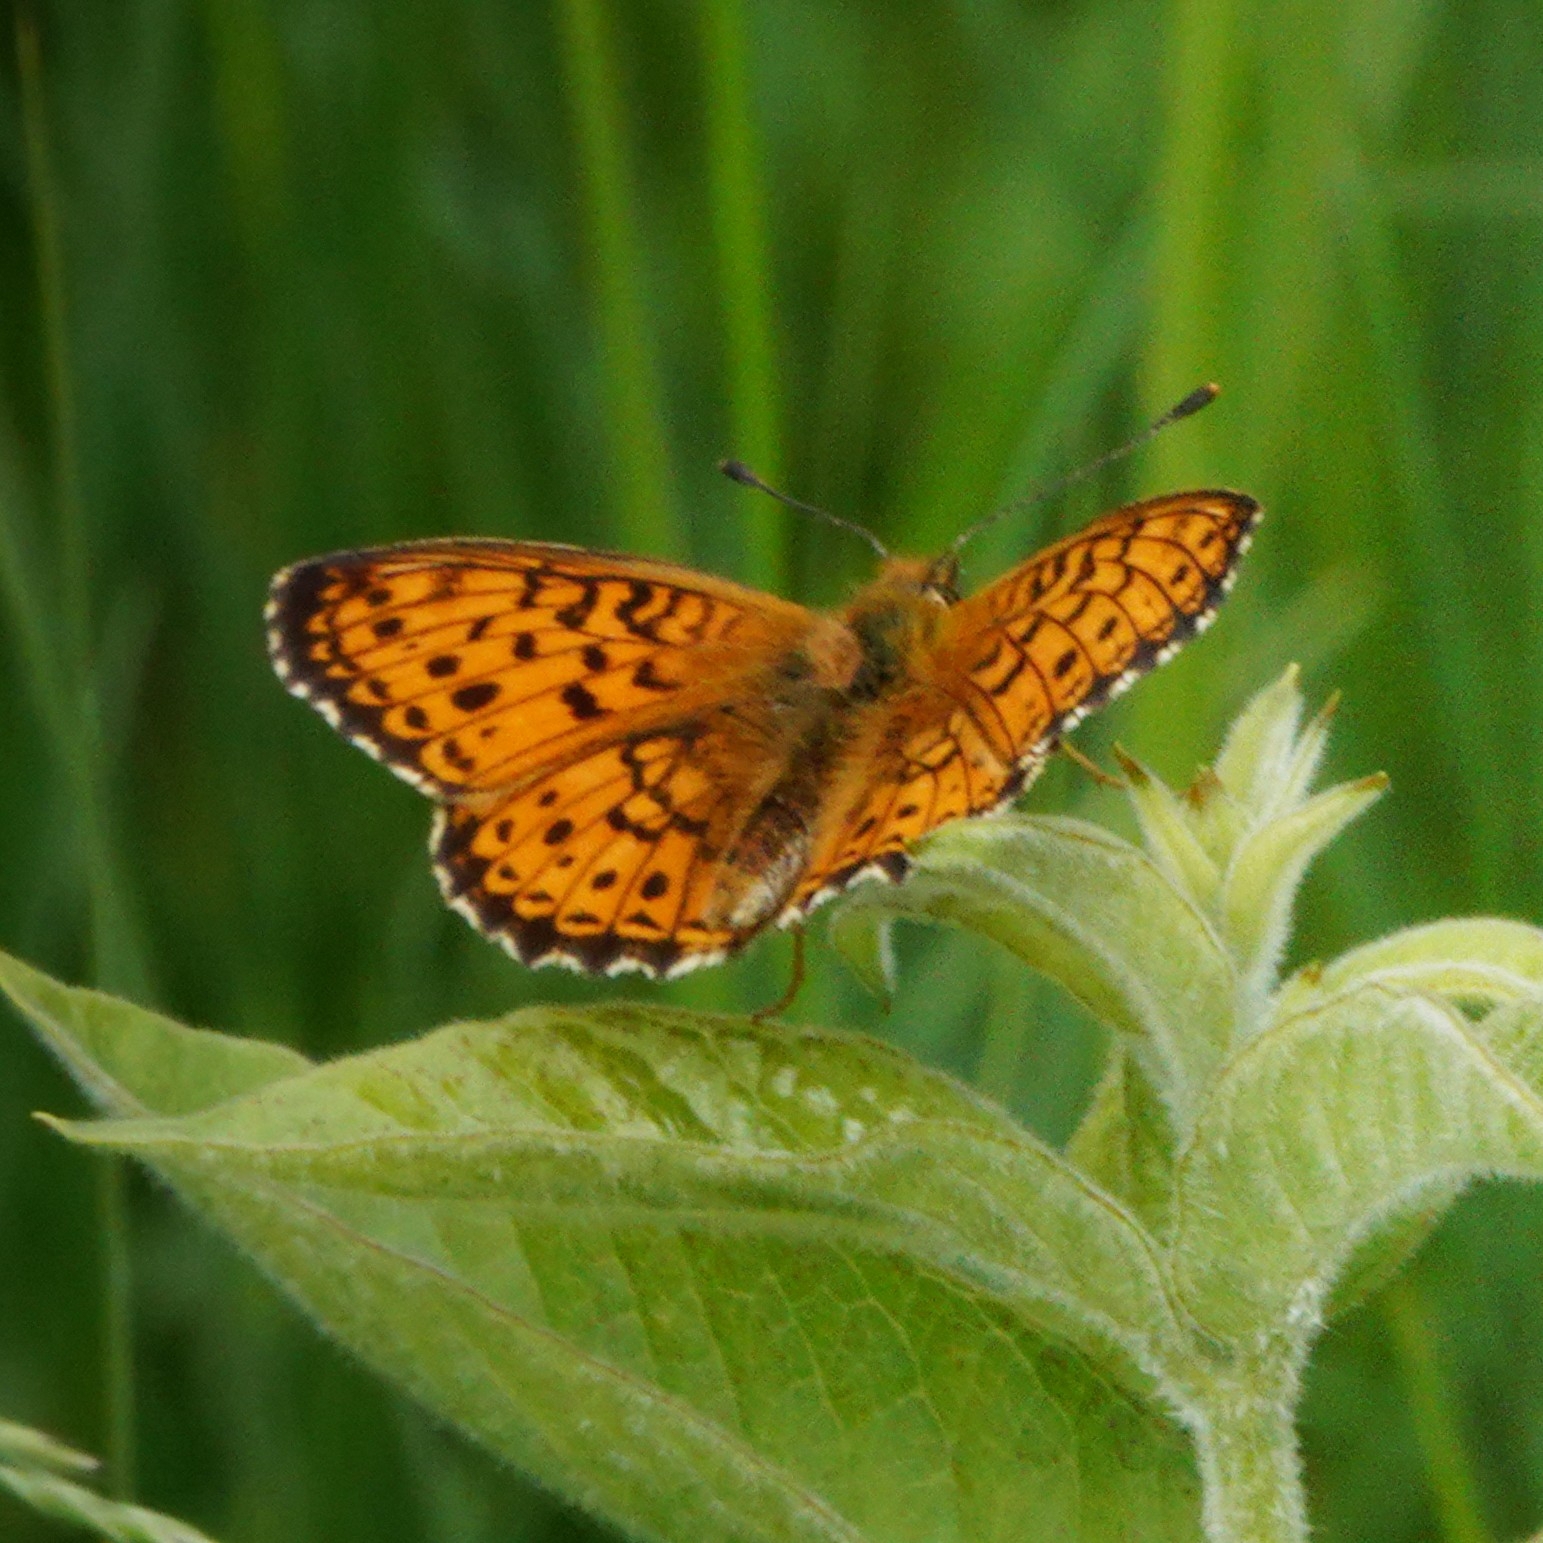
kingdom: Animalia
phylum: Arthropoda
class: Insecta
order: Lepidoptera
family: Nymphalidae
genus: Brenthis
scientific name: Brenthis ino
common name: Lesser marbled fritillary
